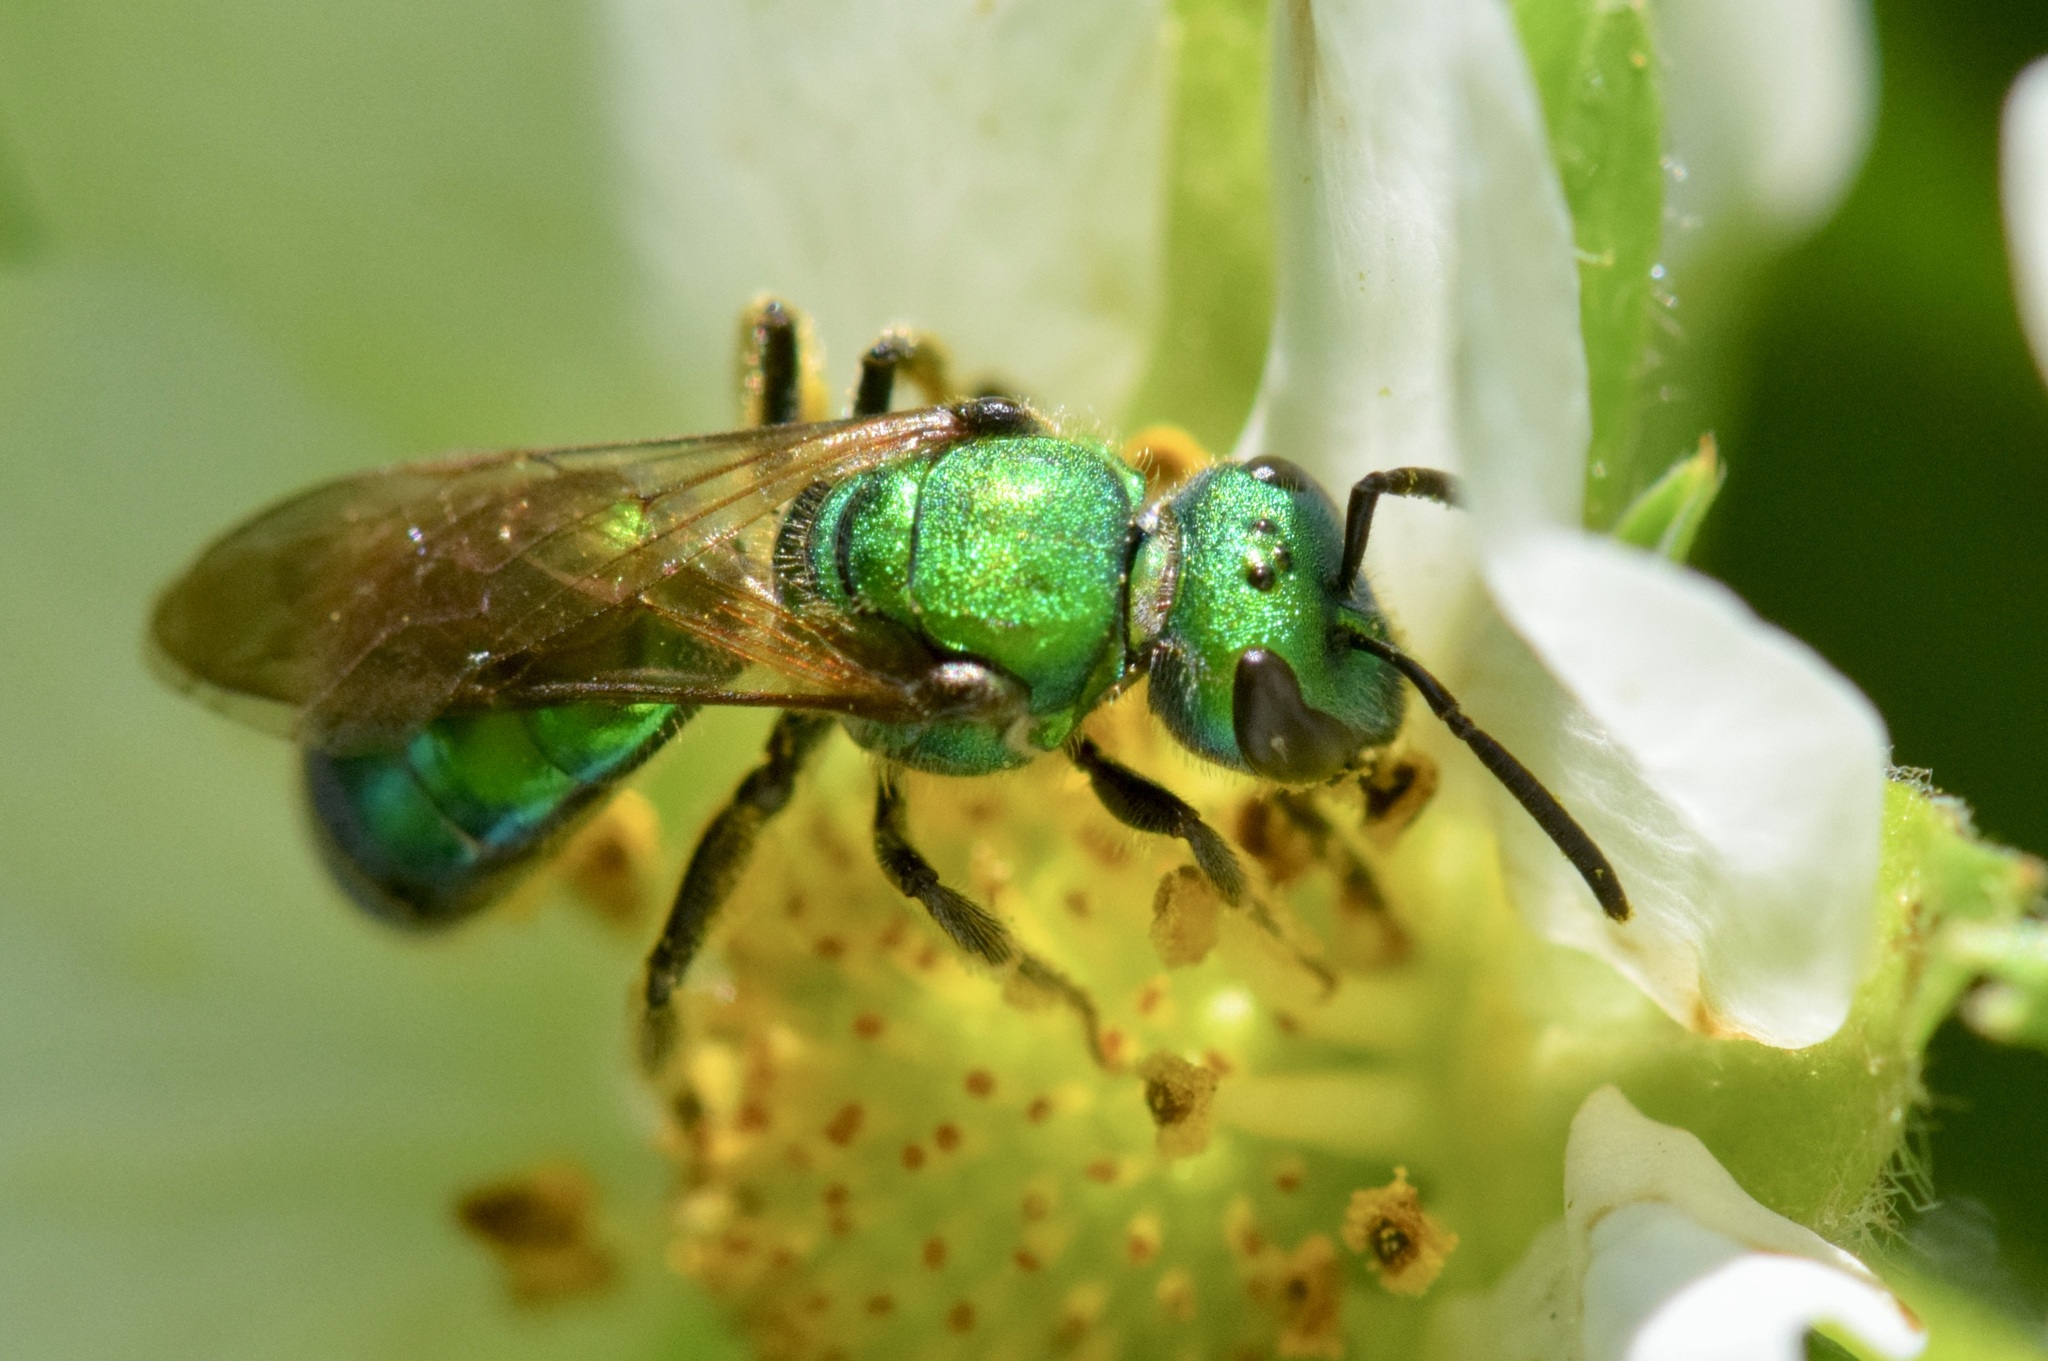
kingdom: Animalia
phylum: Arthropoda
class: Insecta
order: Hymenoptera
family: Halictidae
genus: Augochlora
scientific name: Augochlora pura
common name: Pure green sweat bee
